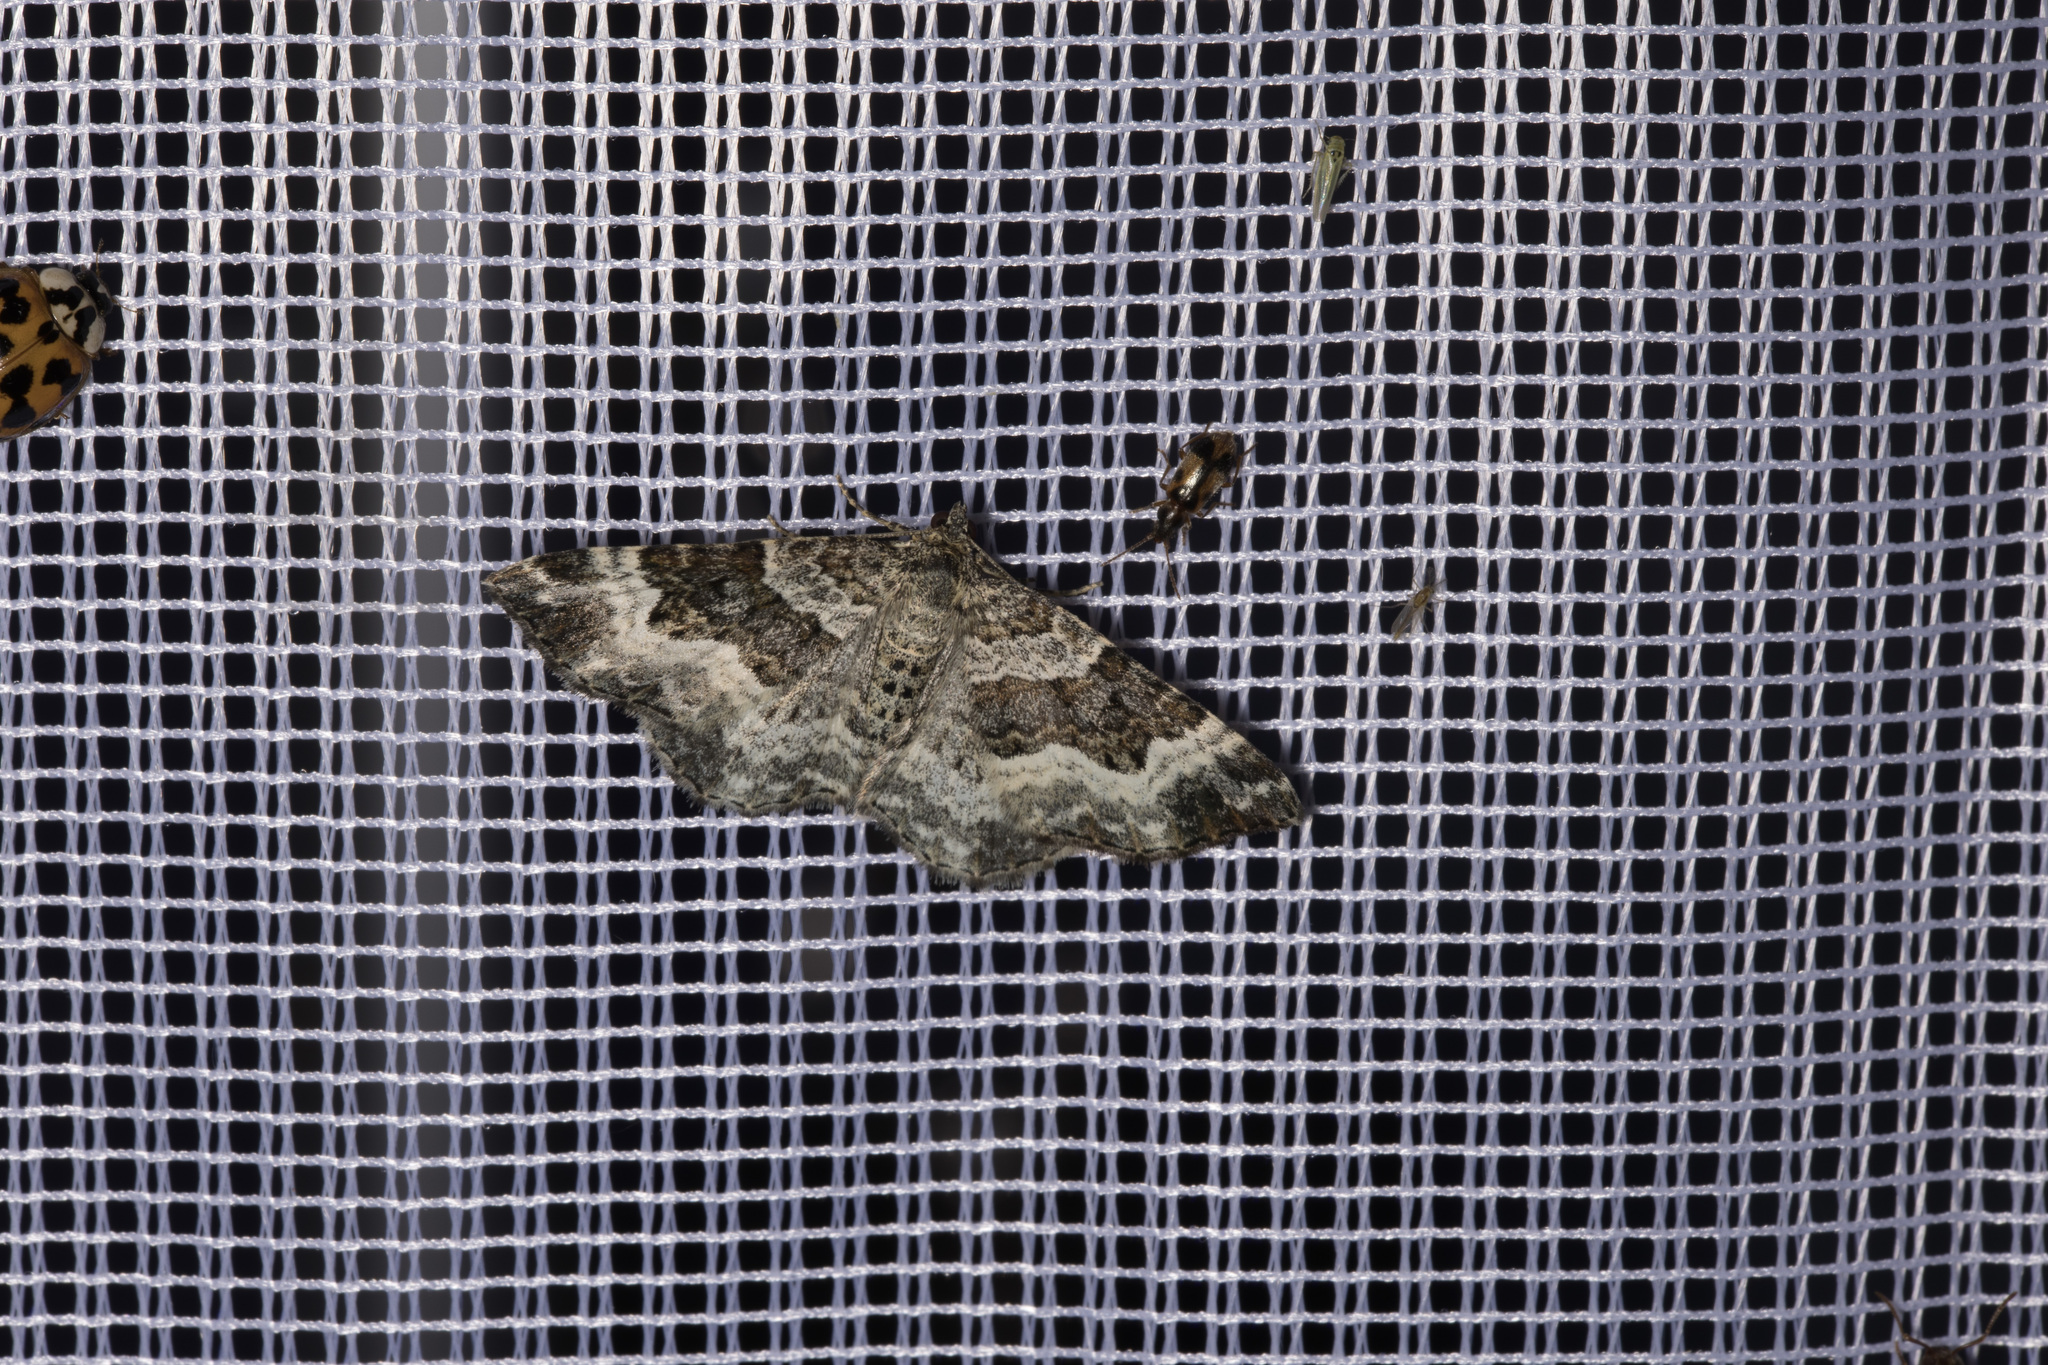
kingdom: Animalia
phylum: Arthropoda
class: Insecta
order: Lepidoptera
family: Geometridae
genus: Epirrhoe
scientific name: Epirrhoe alternata
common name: Common carpet
